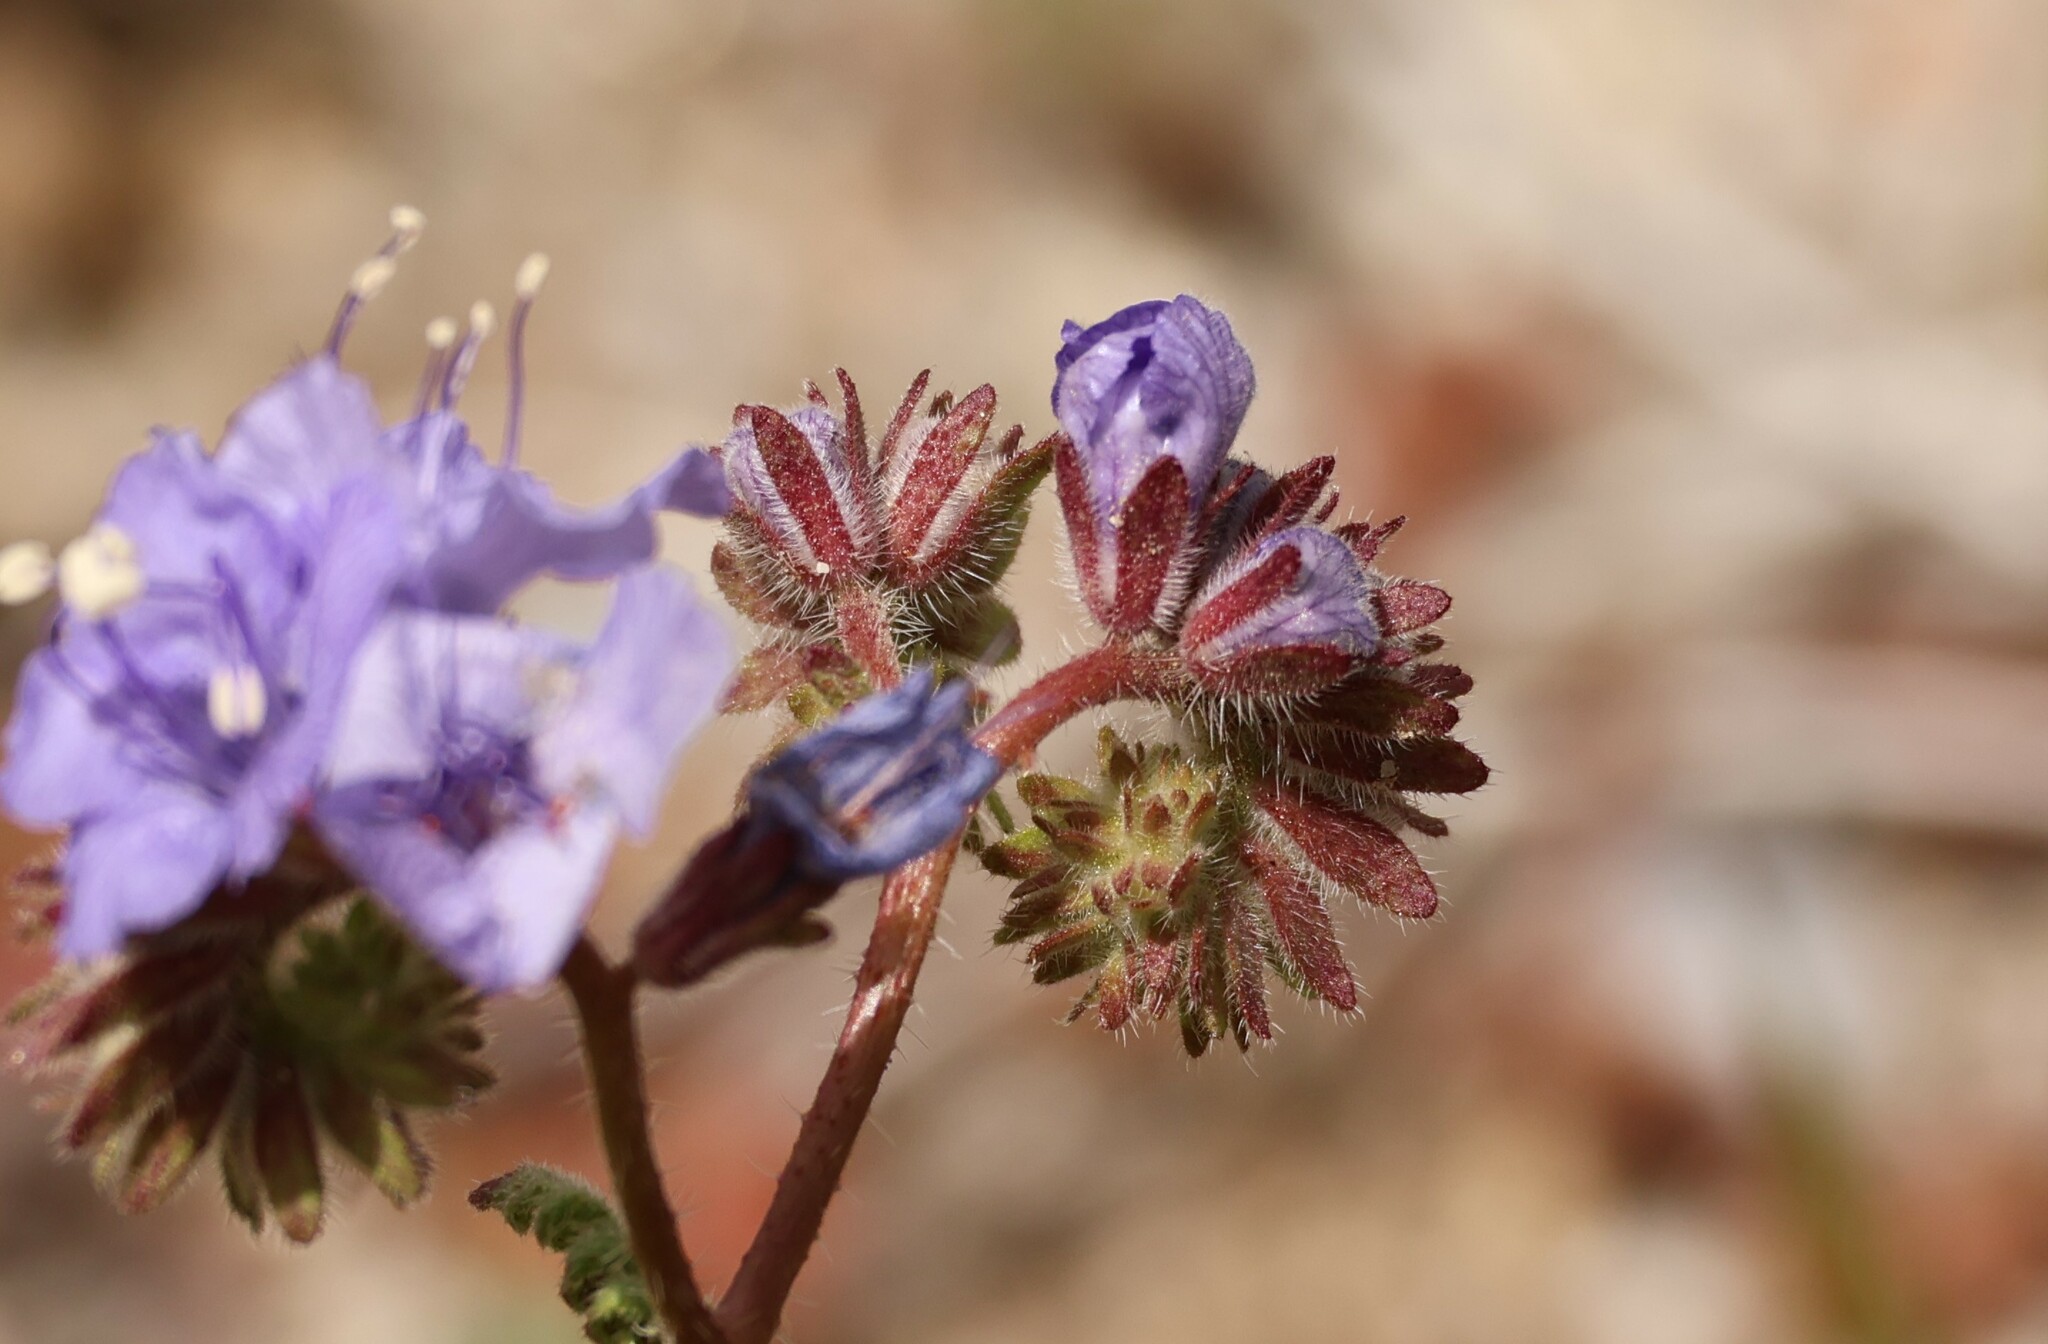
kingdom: Plantae
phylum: Tracheophyta
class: Magnoliopsida
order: Boraginales
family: Hydrophyllaceae
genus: Phacelia
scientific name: Phacelia distans
